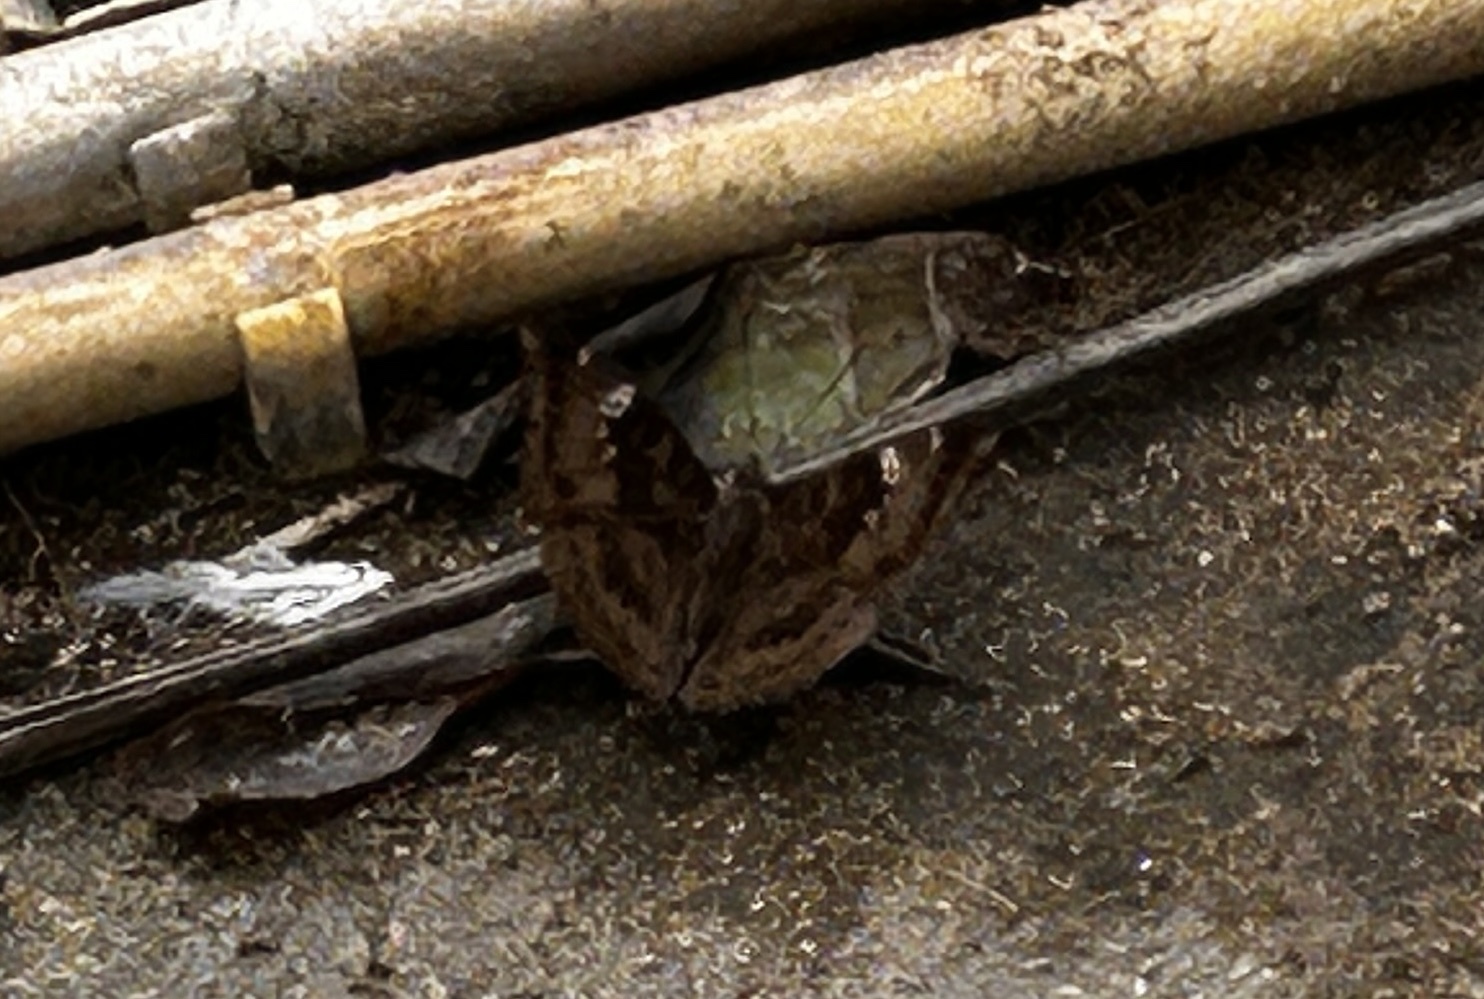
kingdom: Animalia
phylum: Arthropoda
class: Insecta
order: Lepidoptera
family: Nymphalidae
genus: Euthalia
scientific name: Euthalia aconthea
